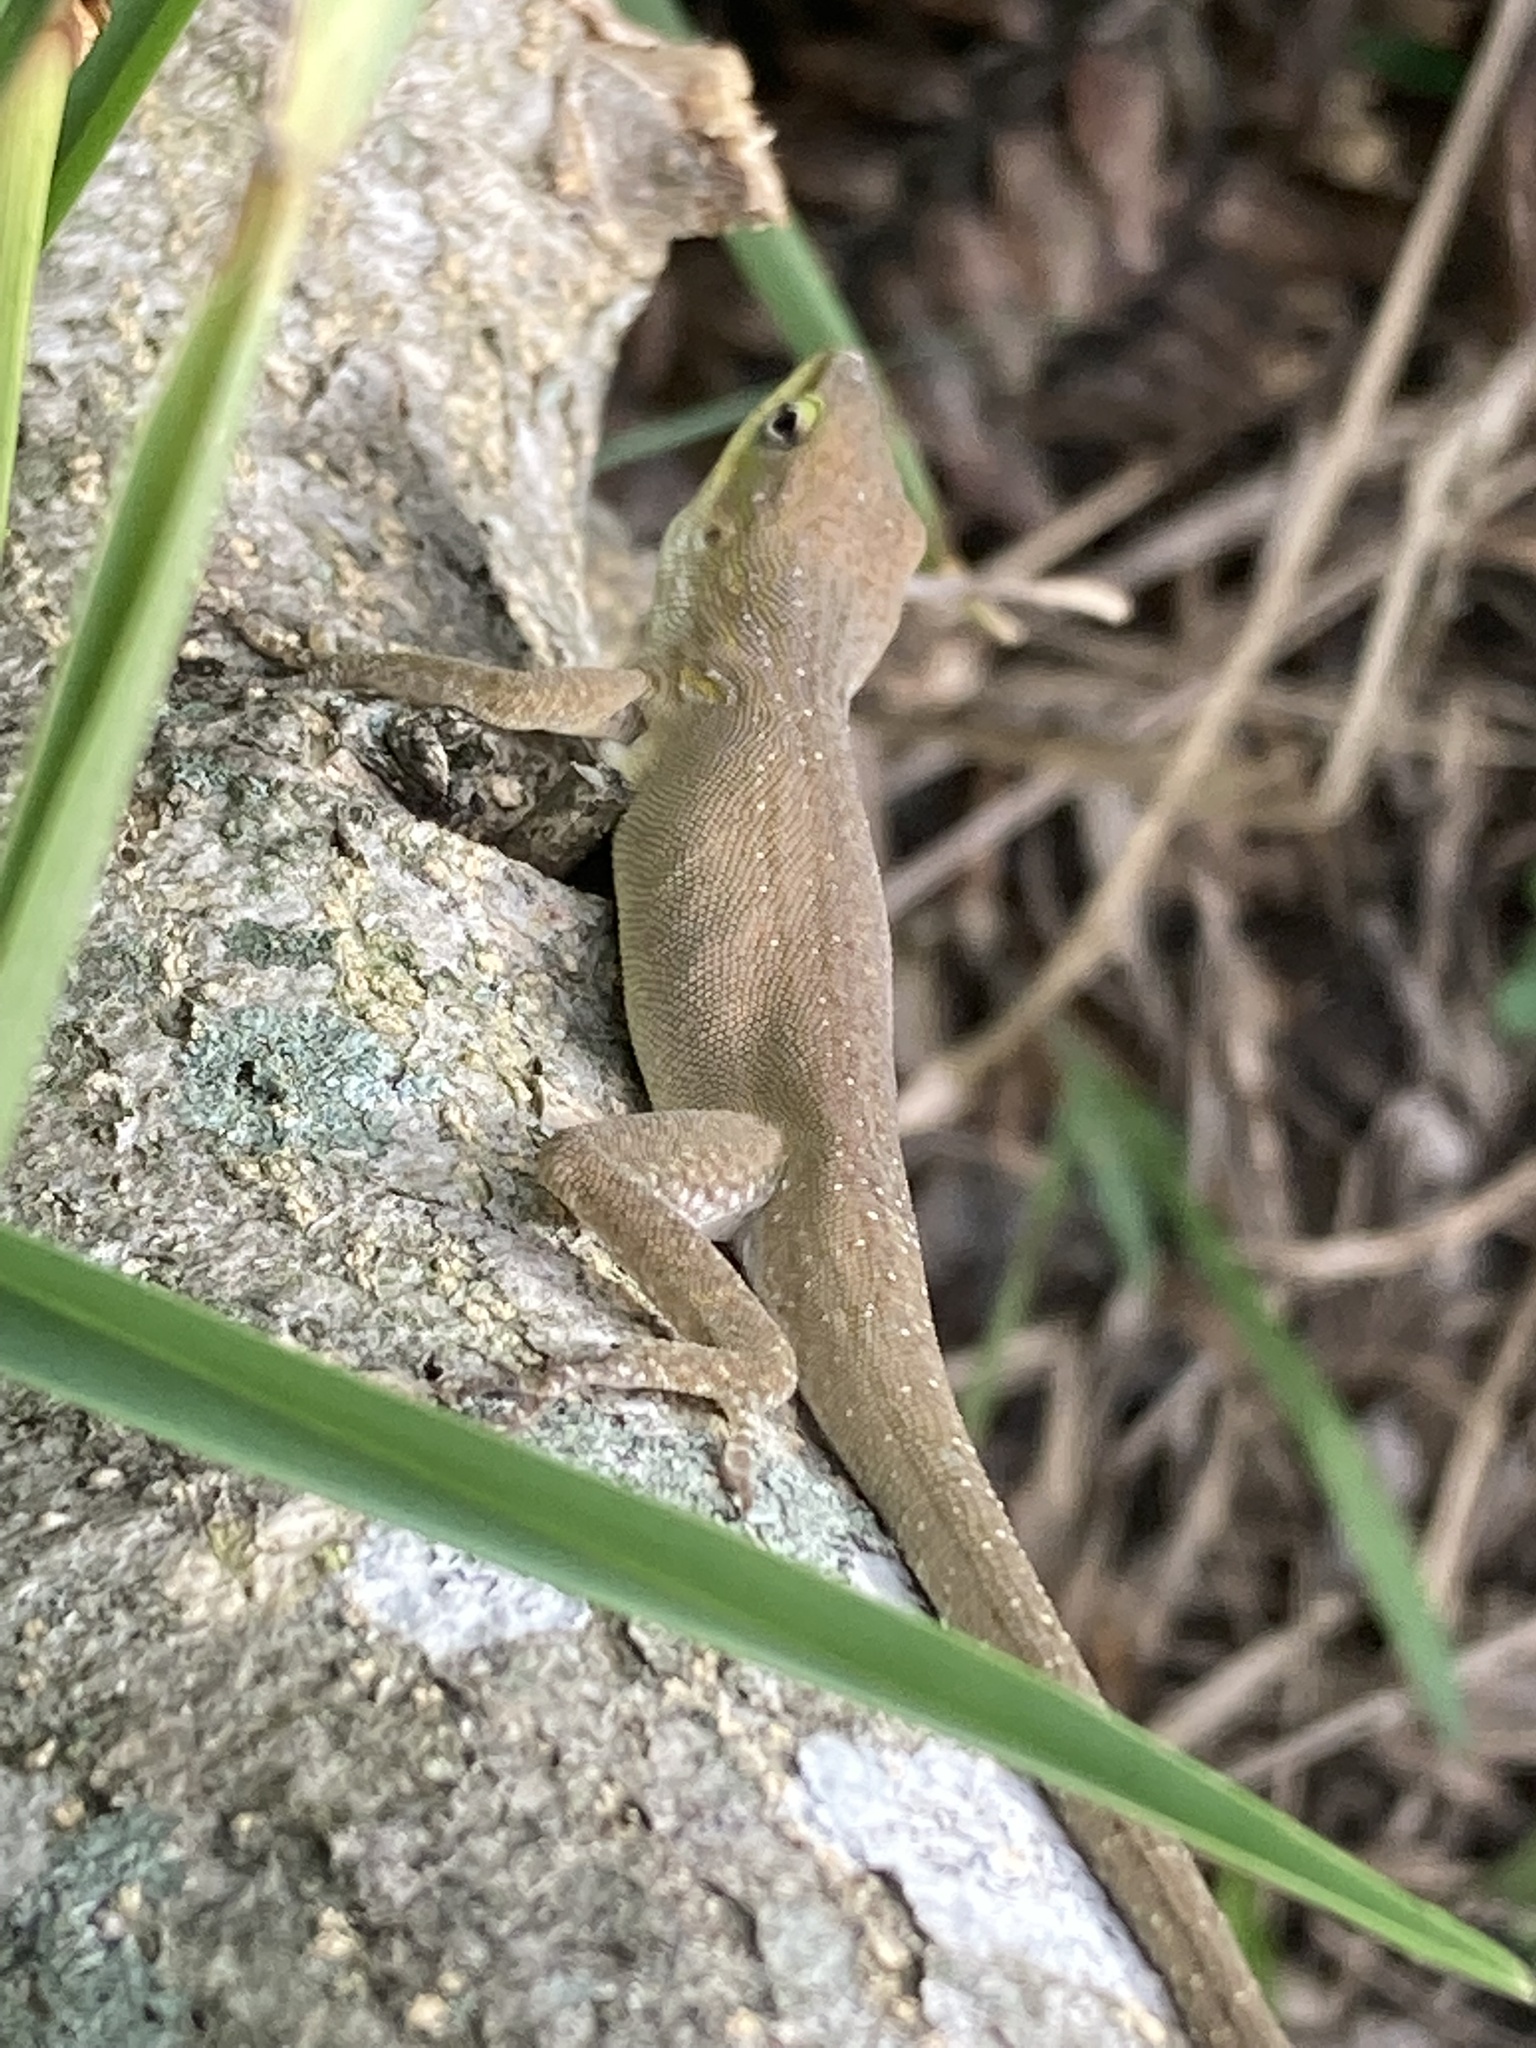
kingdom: Animalia
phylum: Chordata
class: Squamata
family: Dactyloidae
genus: Anolis
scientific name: Anolis carolinensis
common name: Green anole
